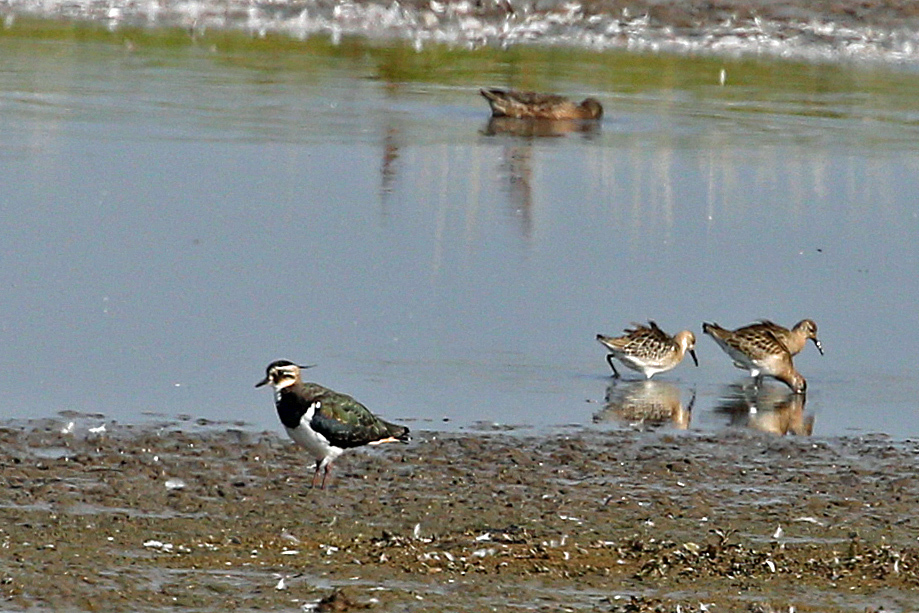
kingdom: Animalia
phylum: Chordata
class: Aves
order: Charadriiformes
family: Charadriidae
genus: Vanellus
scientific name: Vanellus vanellus
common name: Northern lapwing
